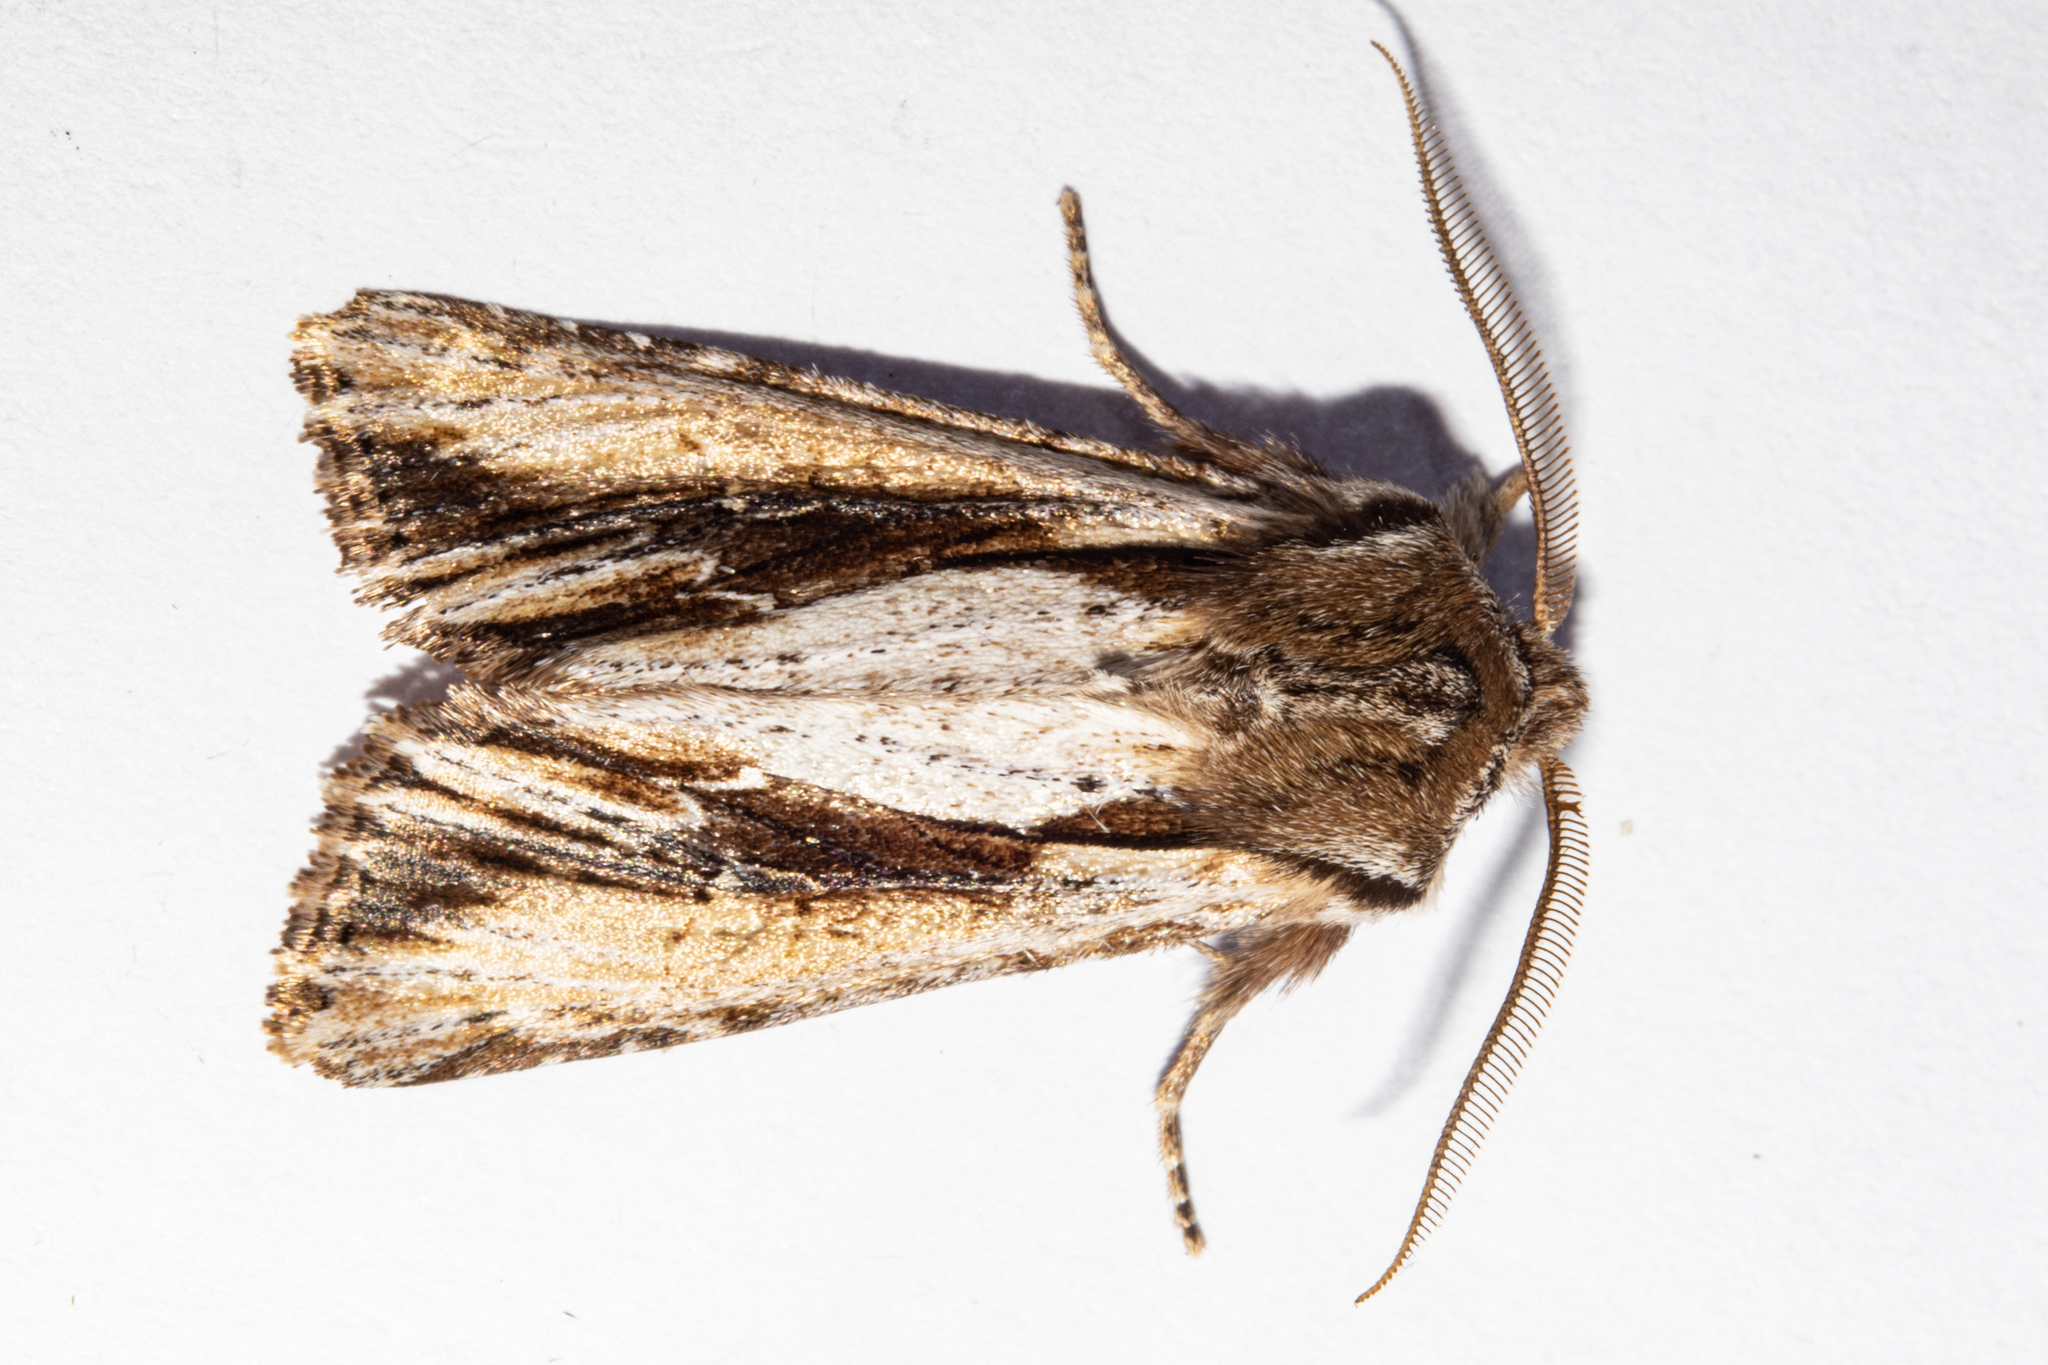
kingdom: Animalia
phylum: Arthropoda
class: Insecta
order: Lepidoptera
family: Noctuidae
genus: Ichneutica
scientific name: Ichneutica
